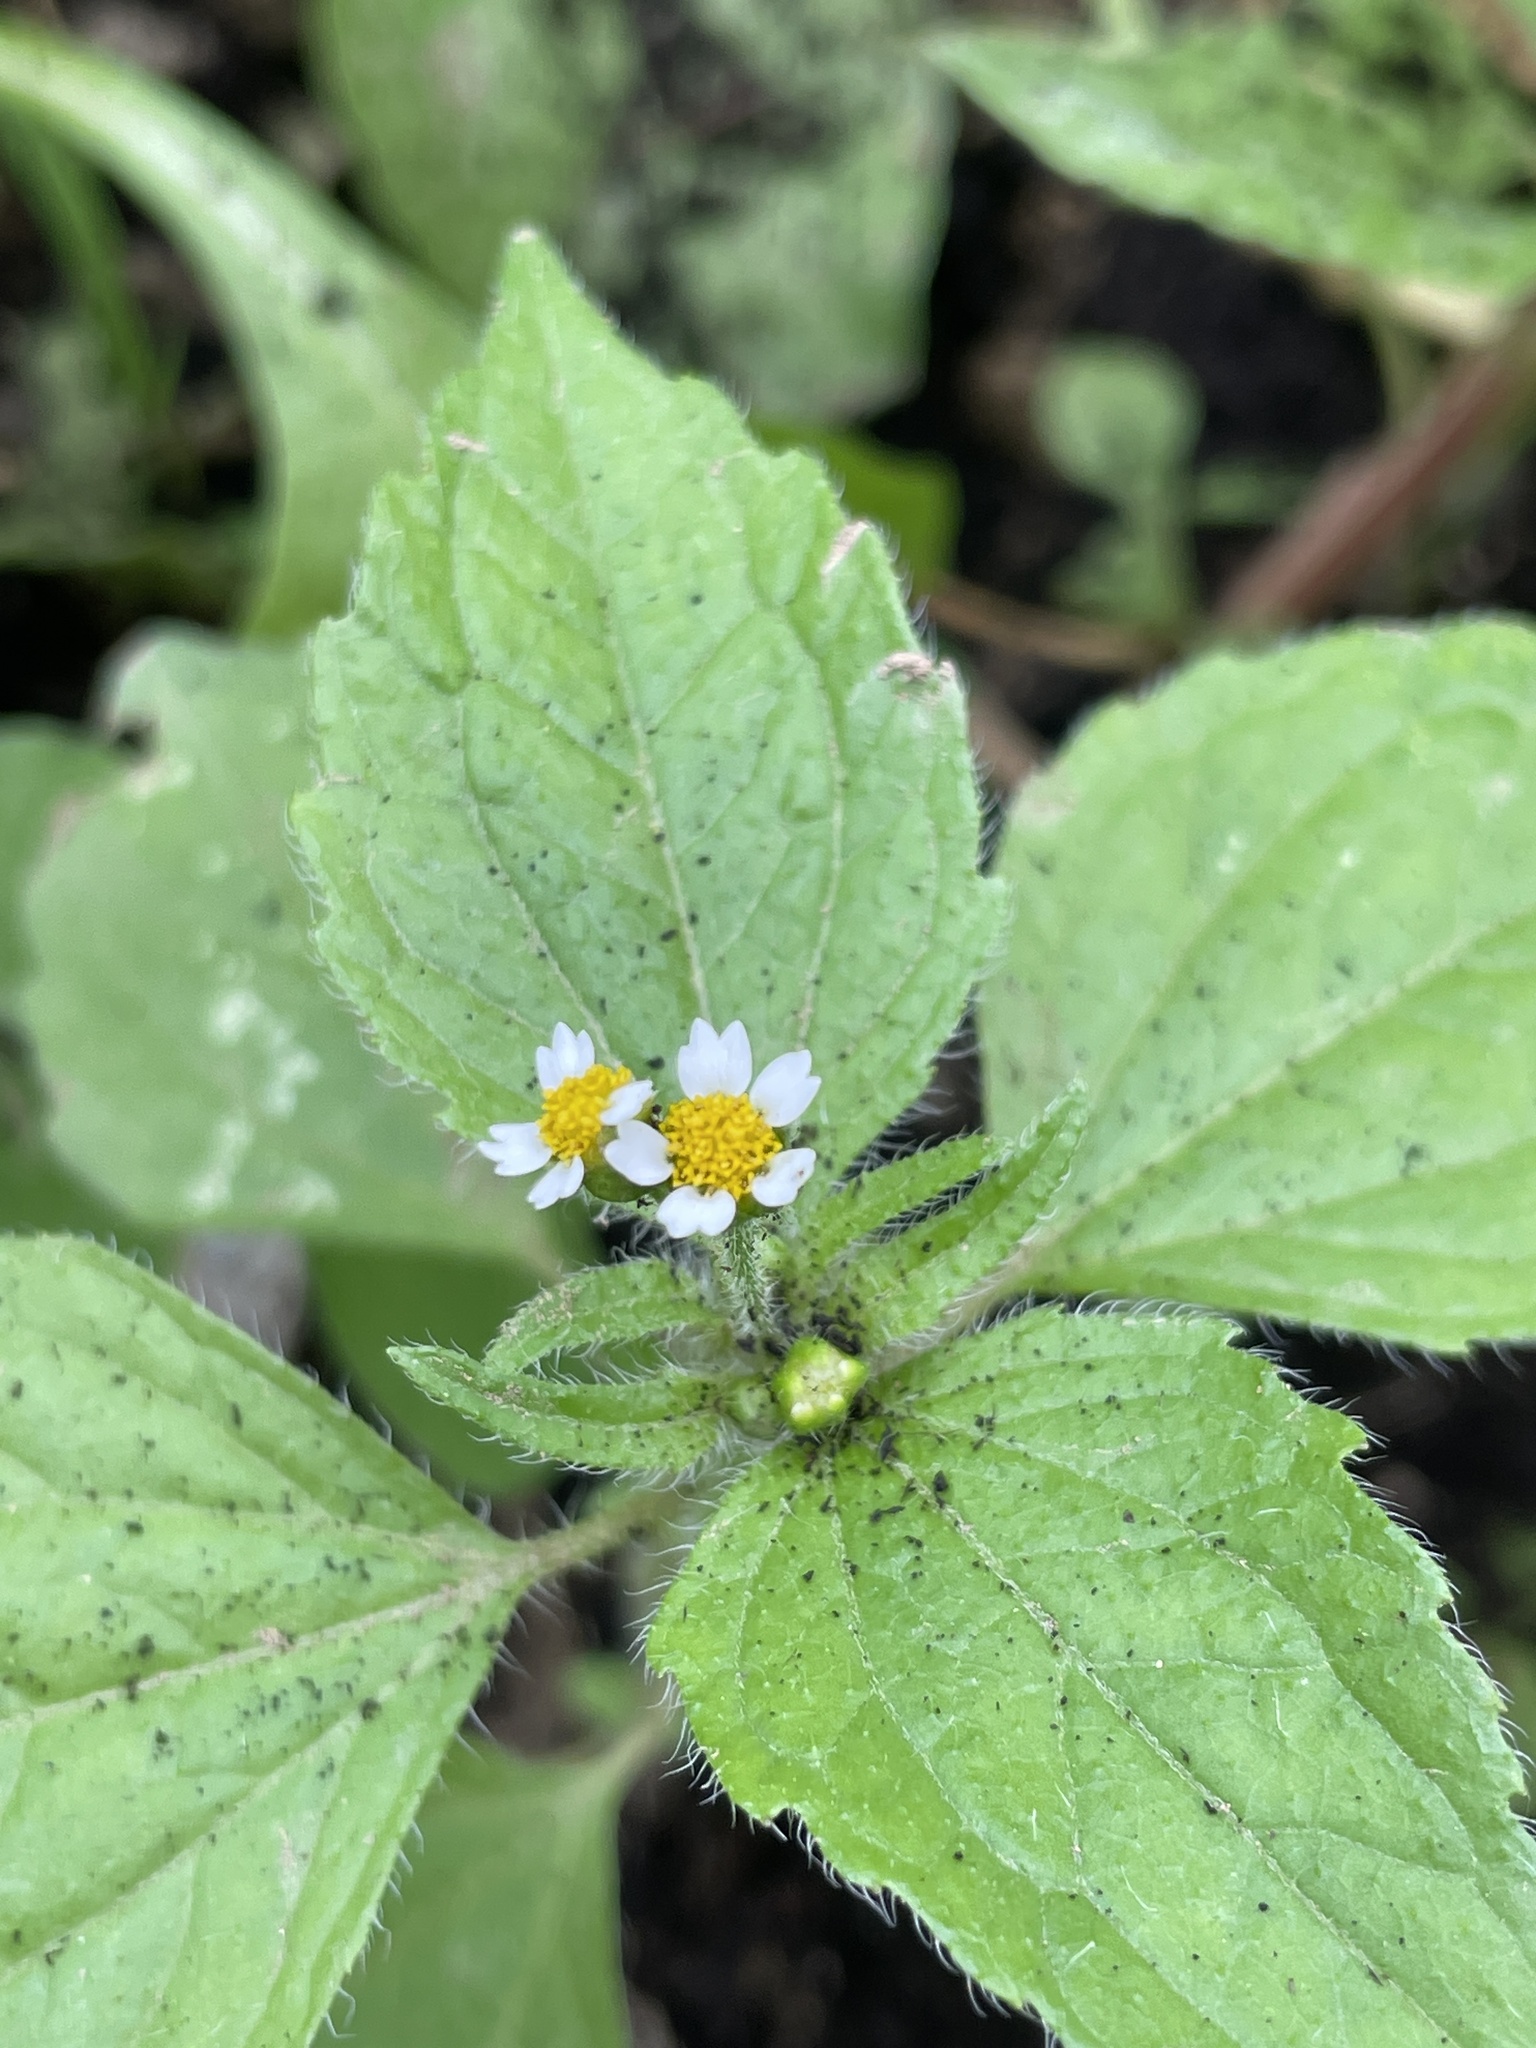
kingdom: Plantae
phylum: Tracheophyta
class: Magnoliopsida
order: Asterales
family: Asteraceae
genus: Galinsoga
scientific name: Galinsoga quadriradiata
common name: Shaggy soldier
